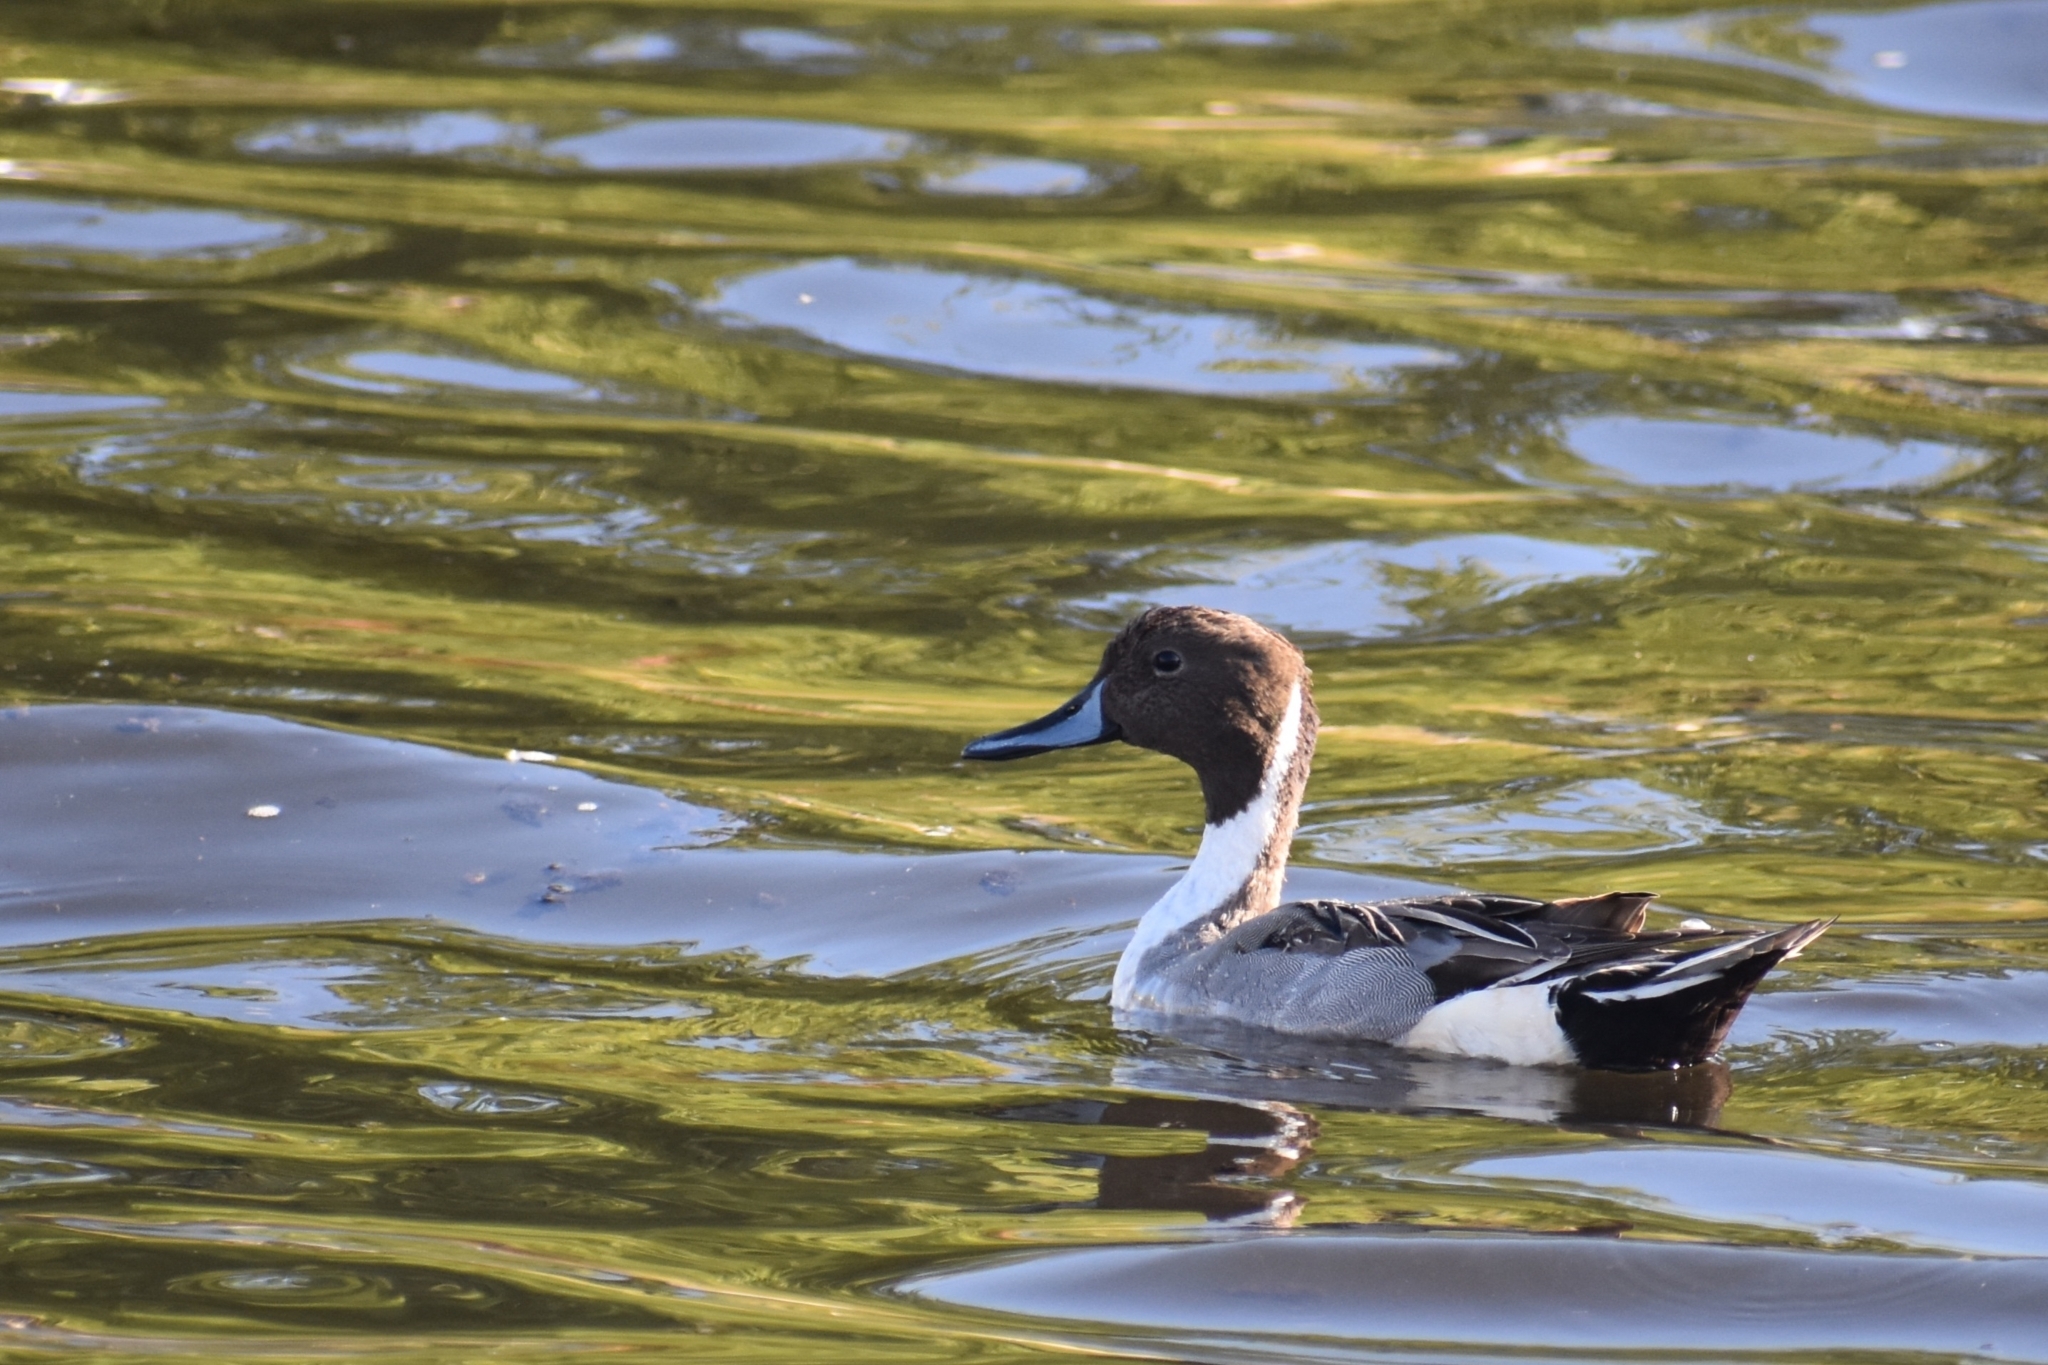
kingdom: Animalia
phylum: Chordata
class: Aves
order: Anseriformes
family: Anatidae
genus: Anas
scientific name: Anas acuta
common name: Northern pintail
